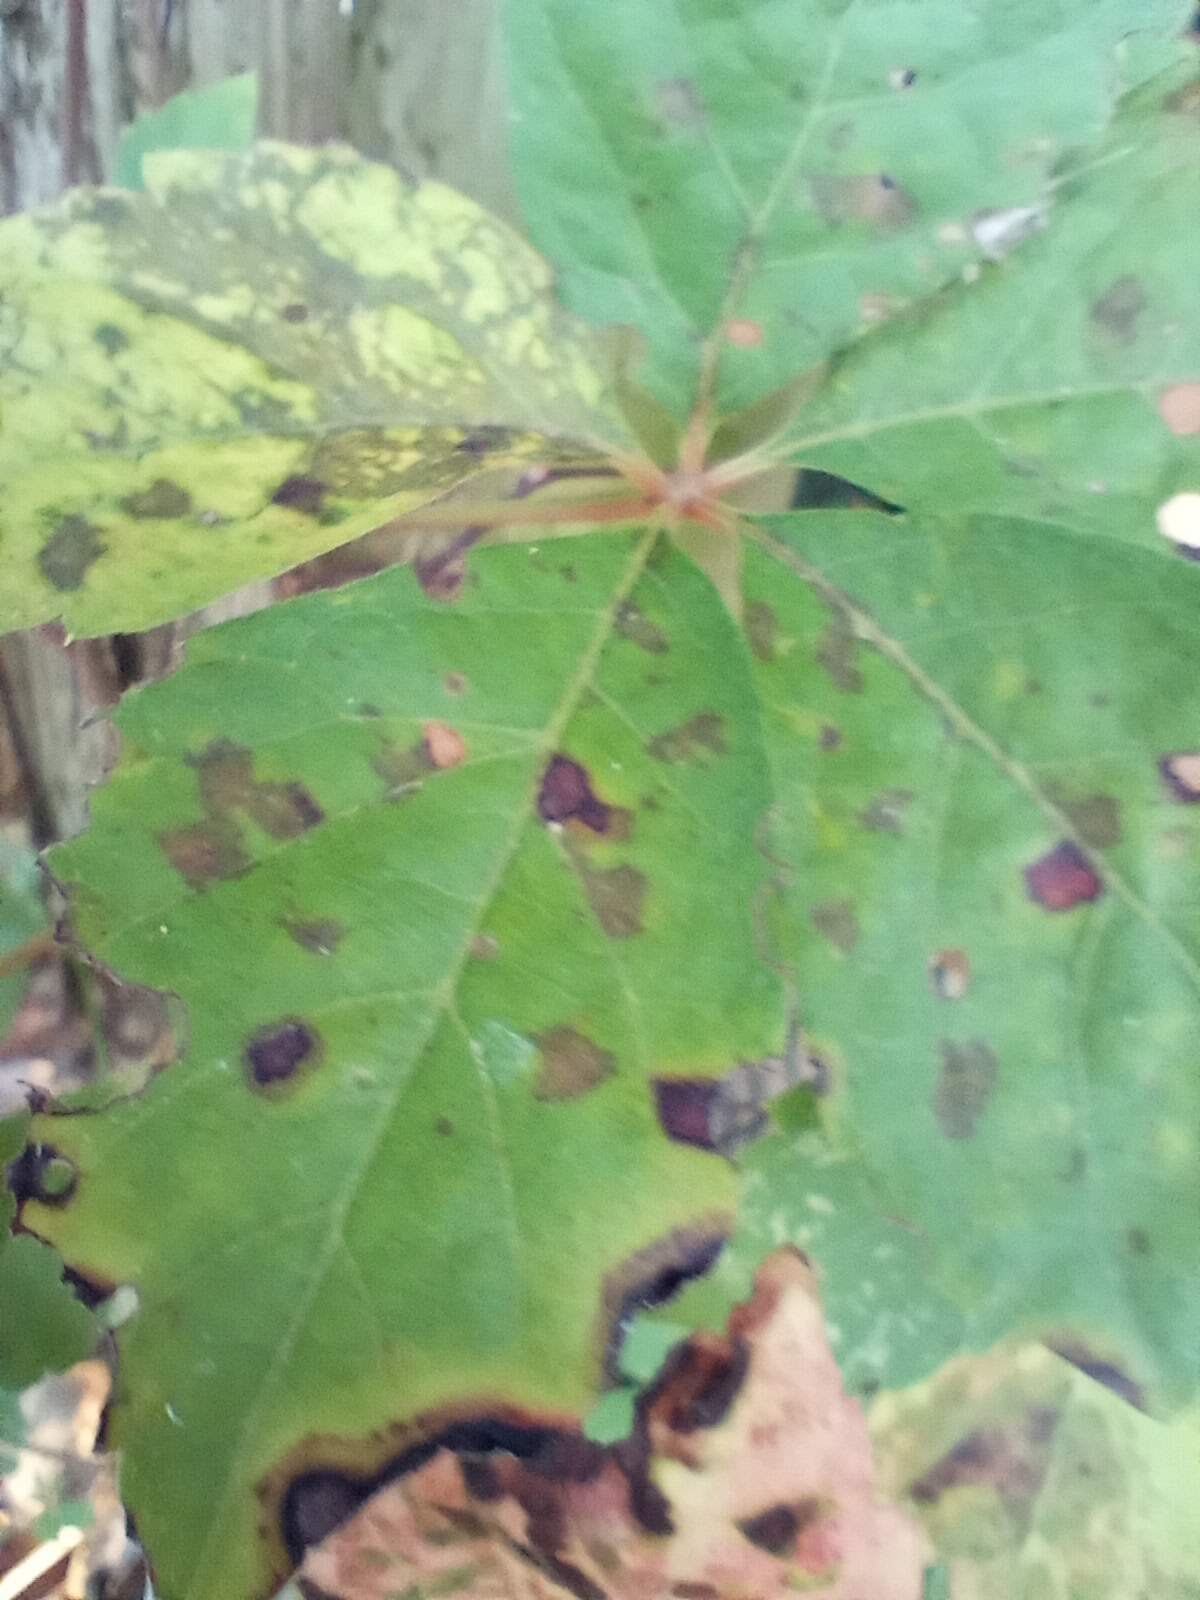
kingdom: Plantae
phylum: Tracheophyta
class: Magnoliopsida
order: Vitales
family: Vitaceae
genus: Parthenocissus
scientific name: Parthenocissus quinquefolia
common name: Virginia-creeper
